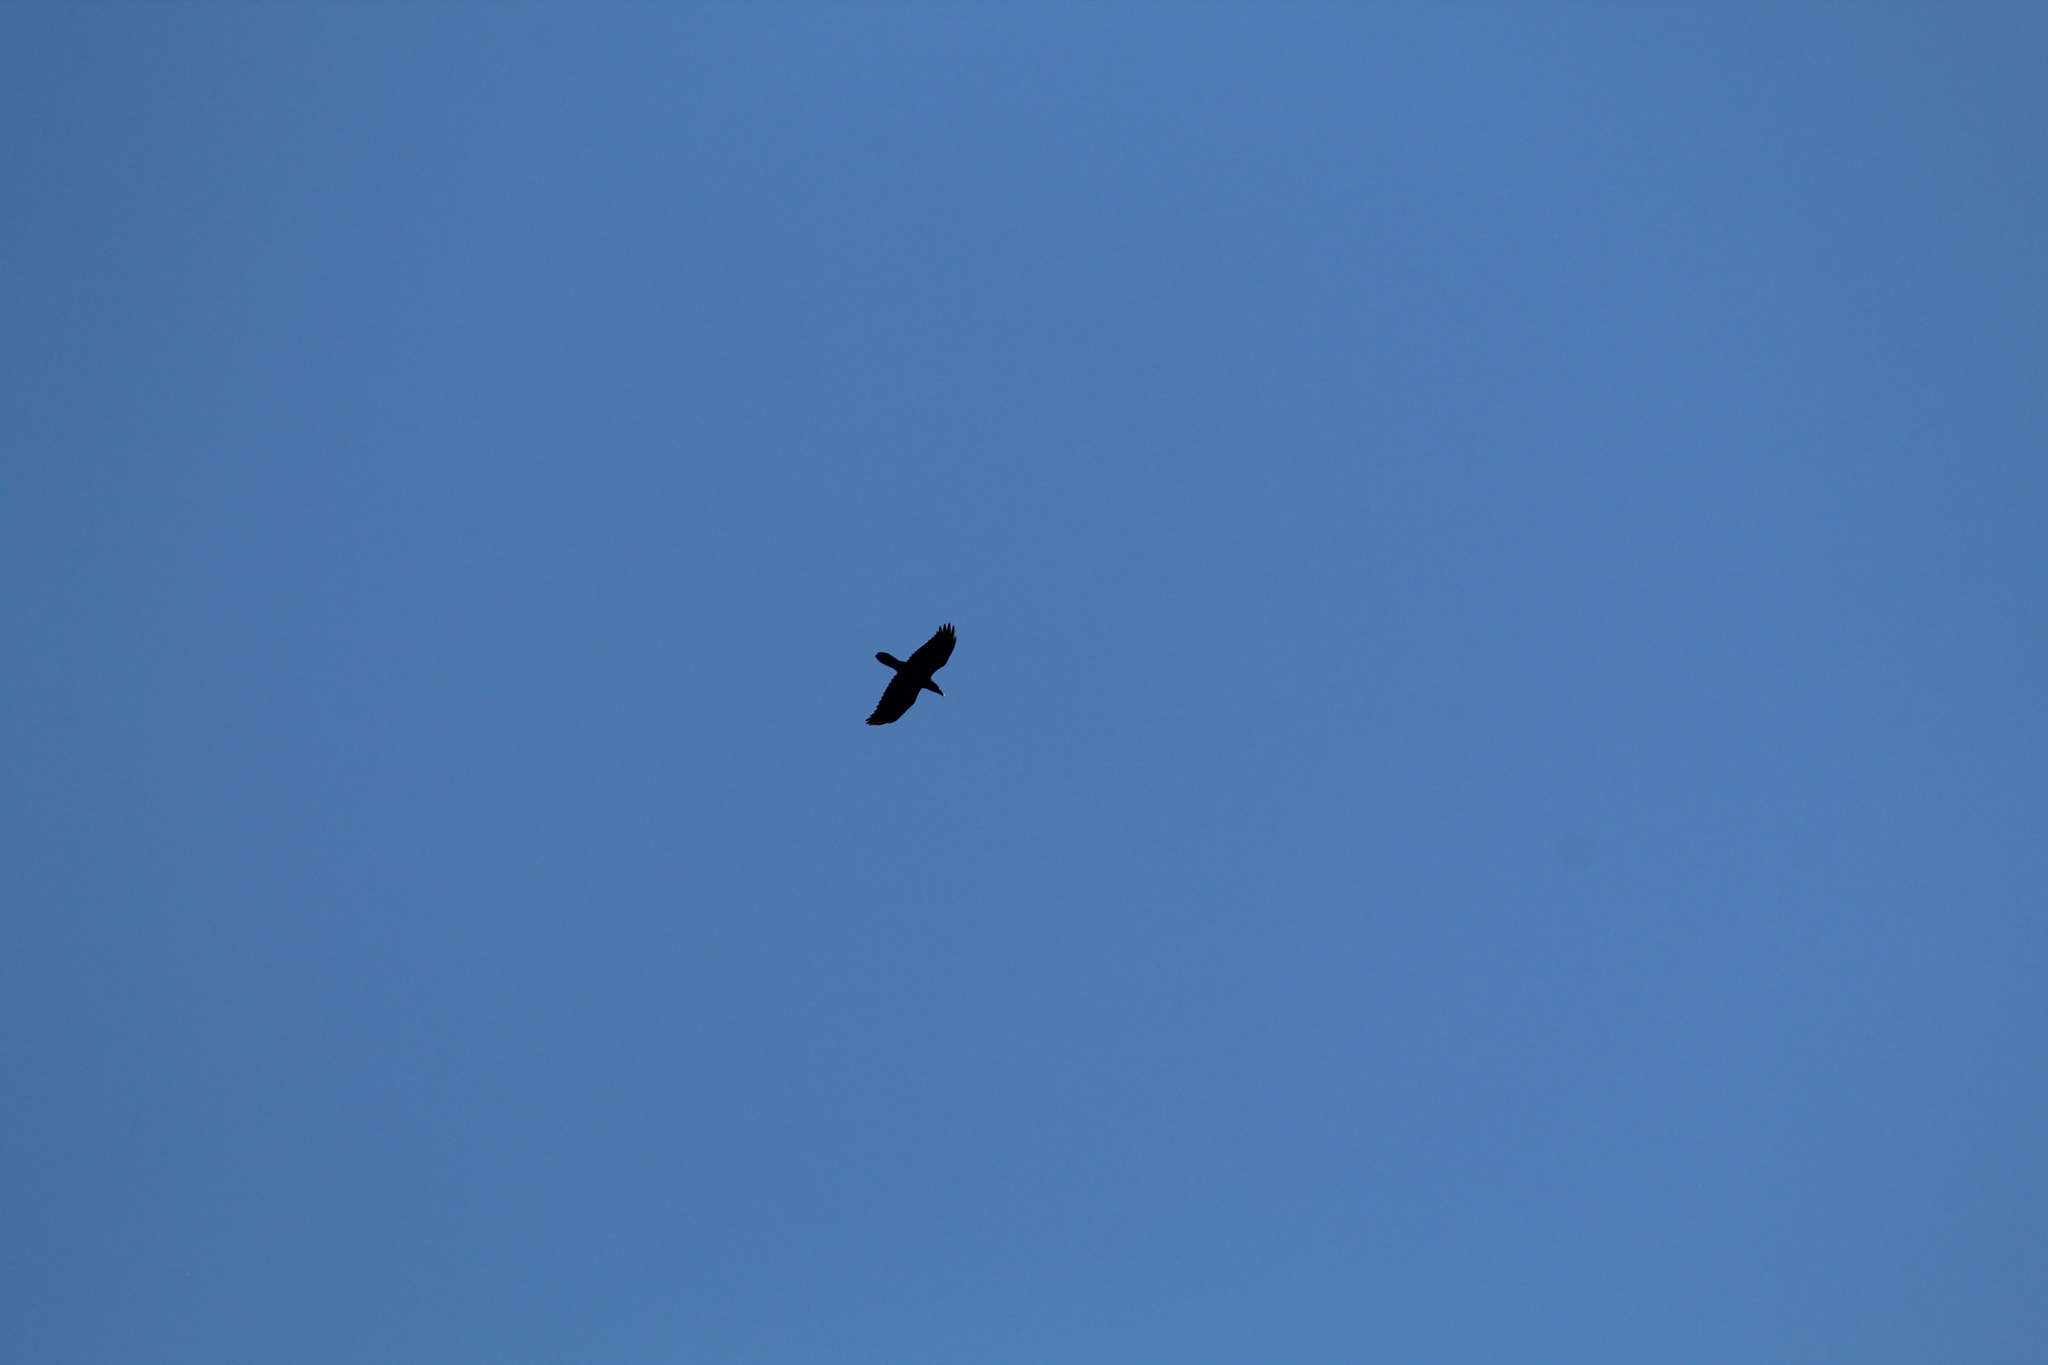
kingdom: Animalia
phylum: Chordata
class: Aves
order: Passeriformes
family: Corvidae
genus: Corvus
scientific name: Corvus corax
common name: Common raven
